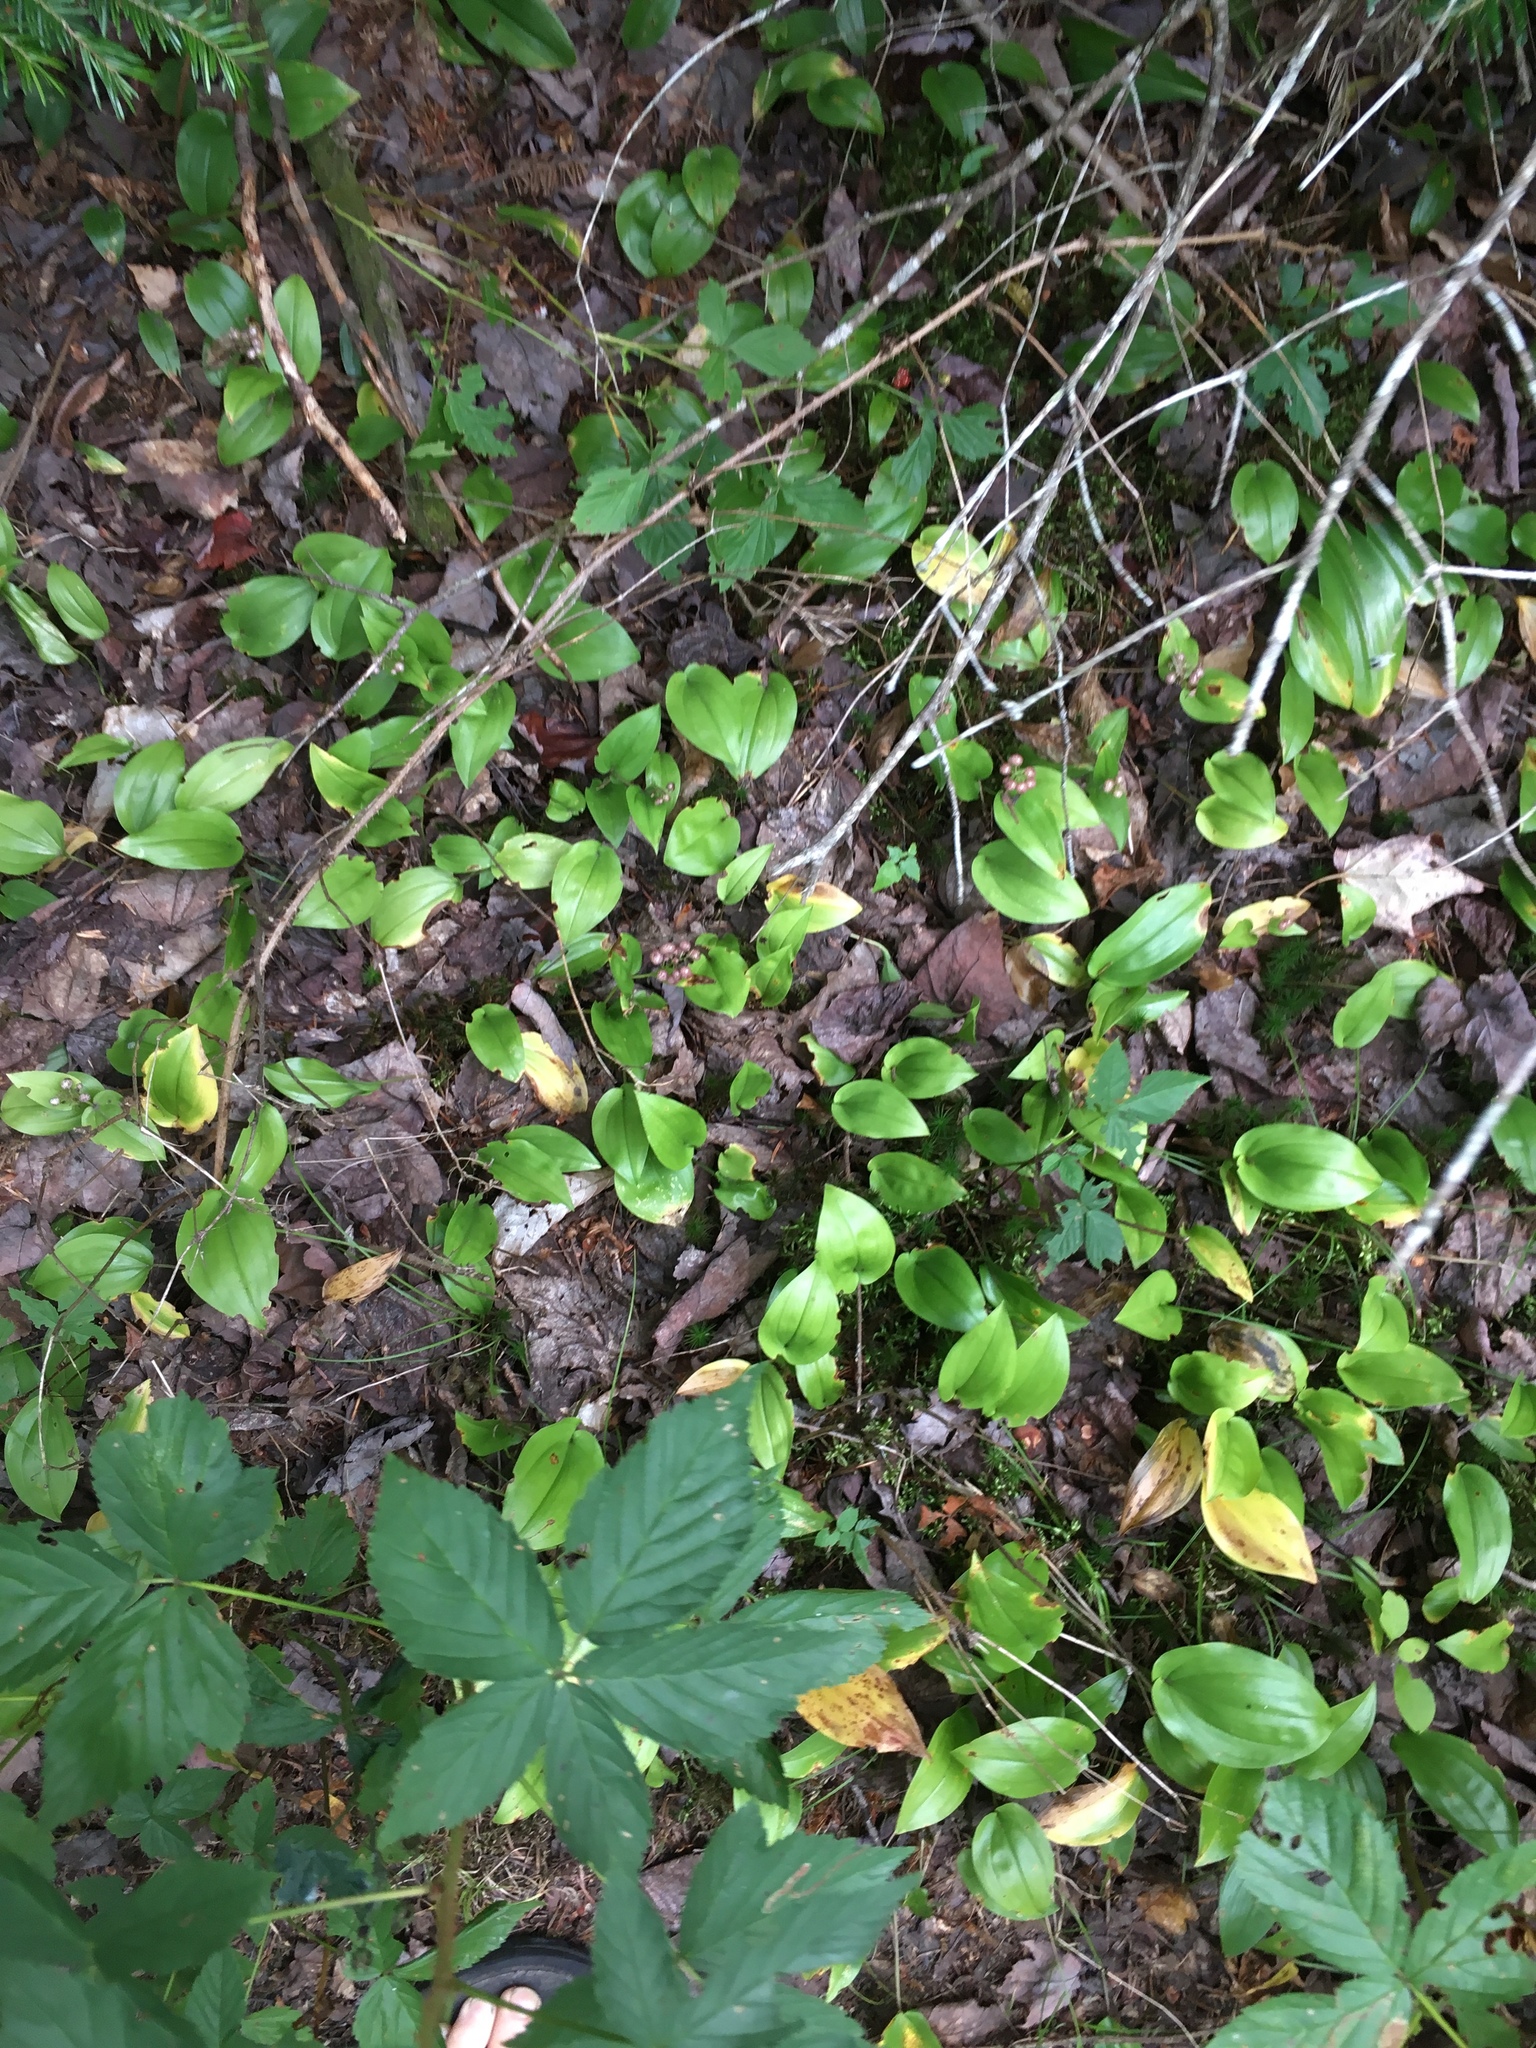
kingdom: Plantae
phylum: Tracheophyta
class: Liliopsida
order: Asparagales
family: Asparagaceae
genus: Maianthemum
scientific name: Maianthemum canadense
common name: False lily-of-the-valley
